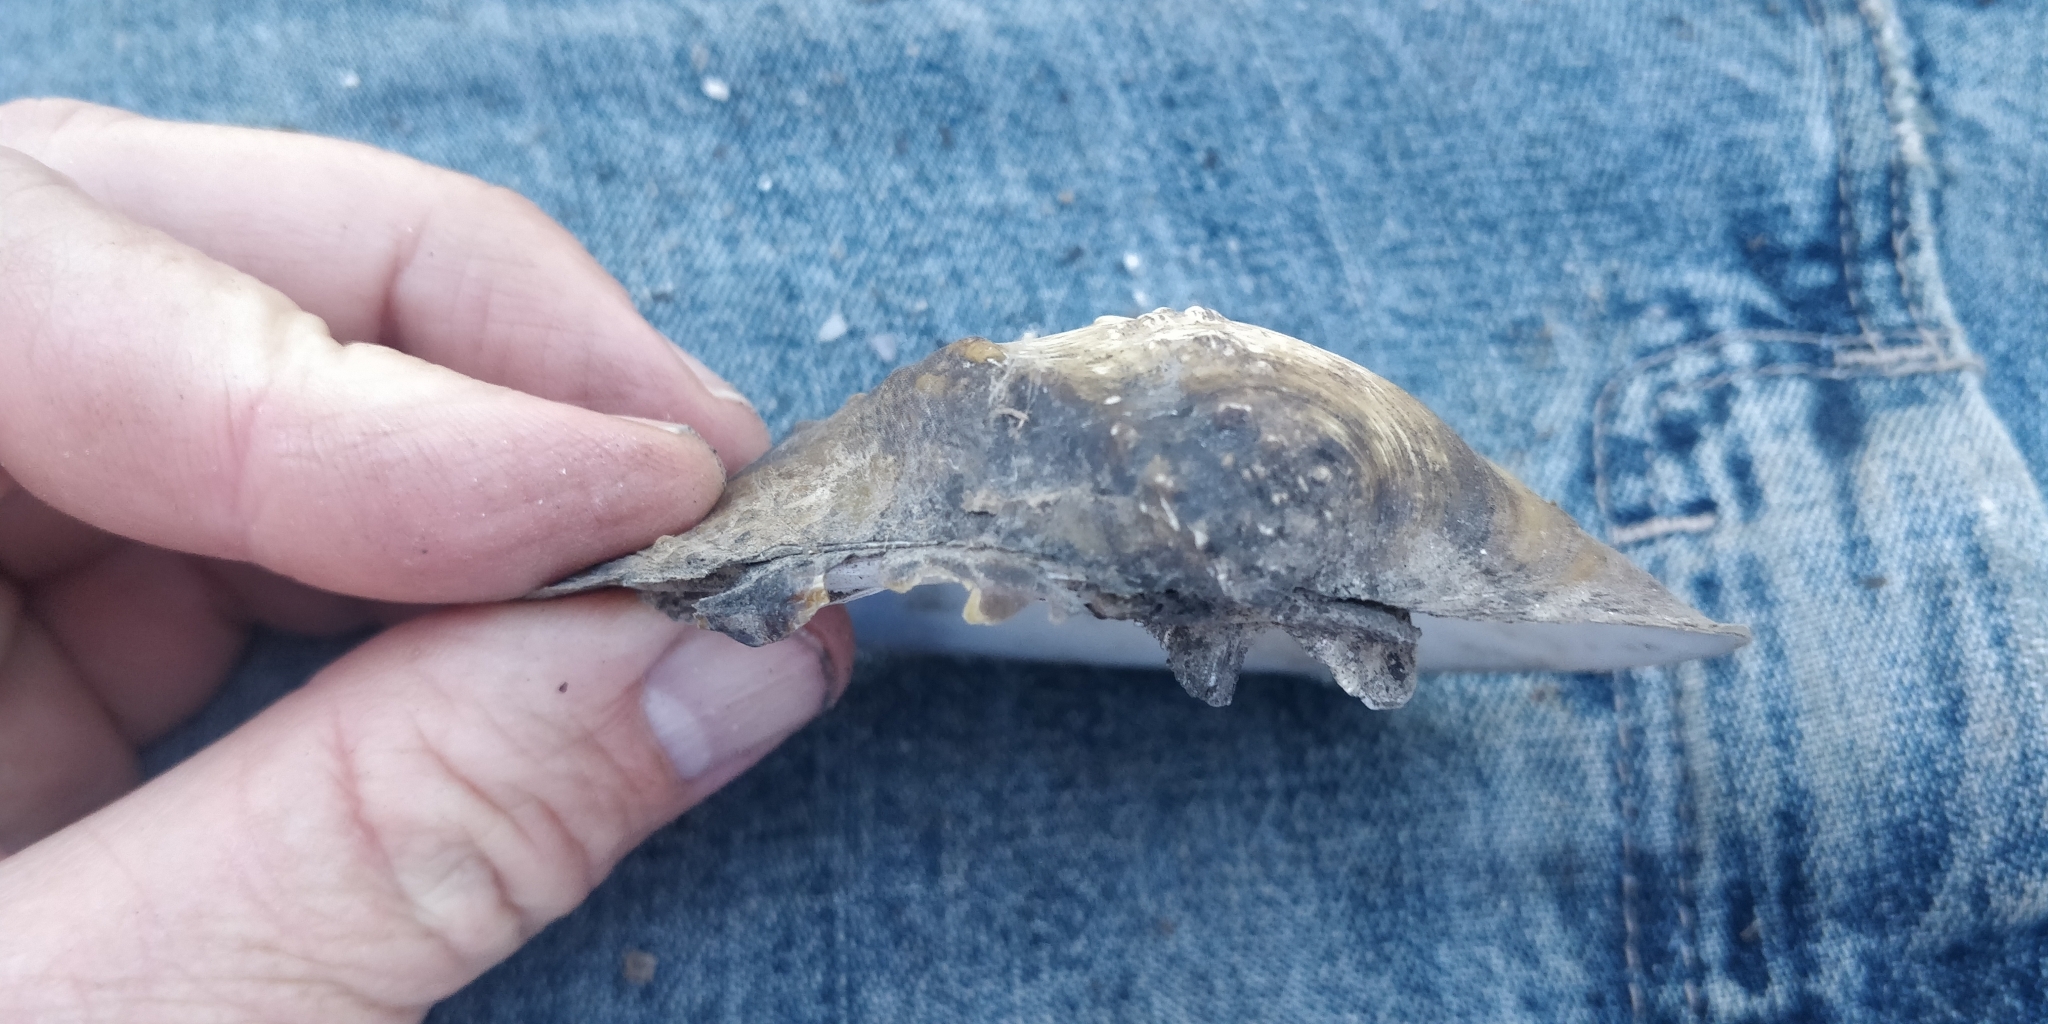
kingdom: Animalia
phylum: Mollusca
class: Bivalvia
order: Unionida
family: Unionidae
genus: Quadrula
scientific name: Quadrula quadrula
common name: Mapleleaf
